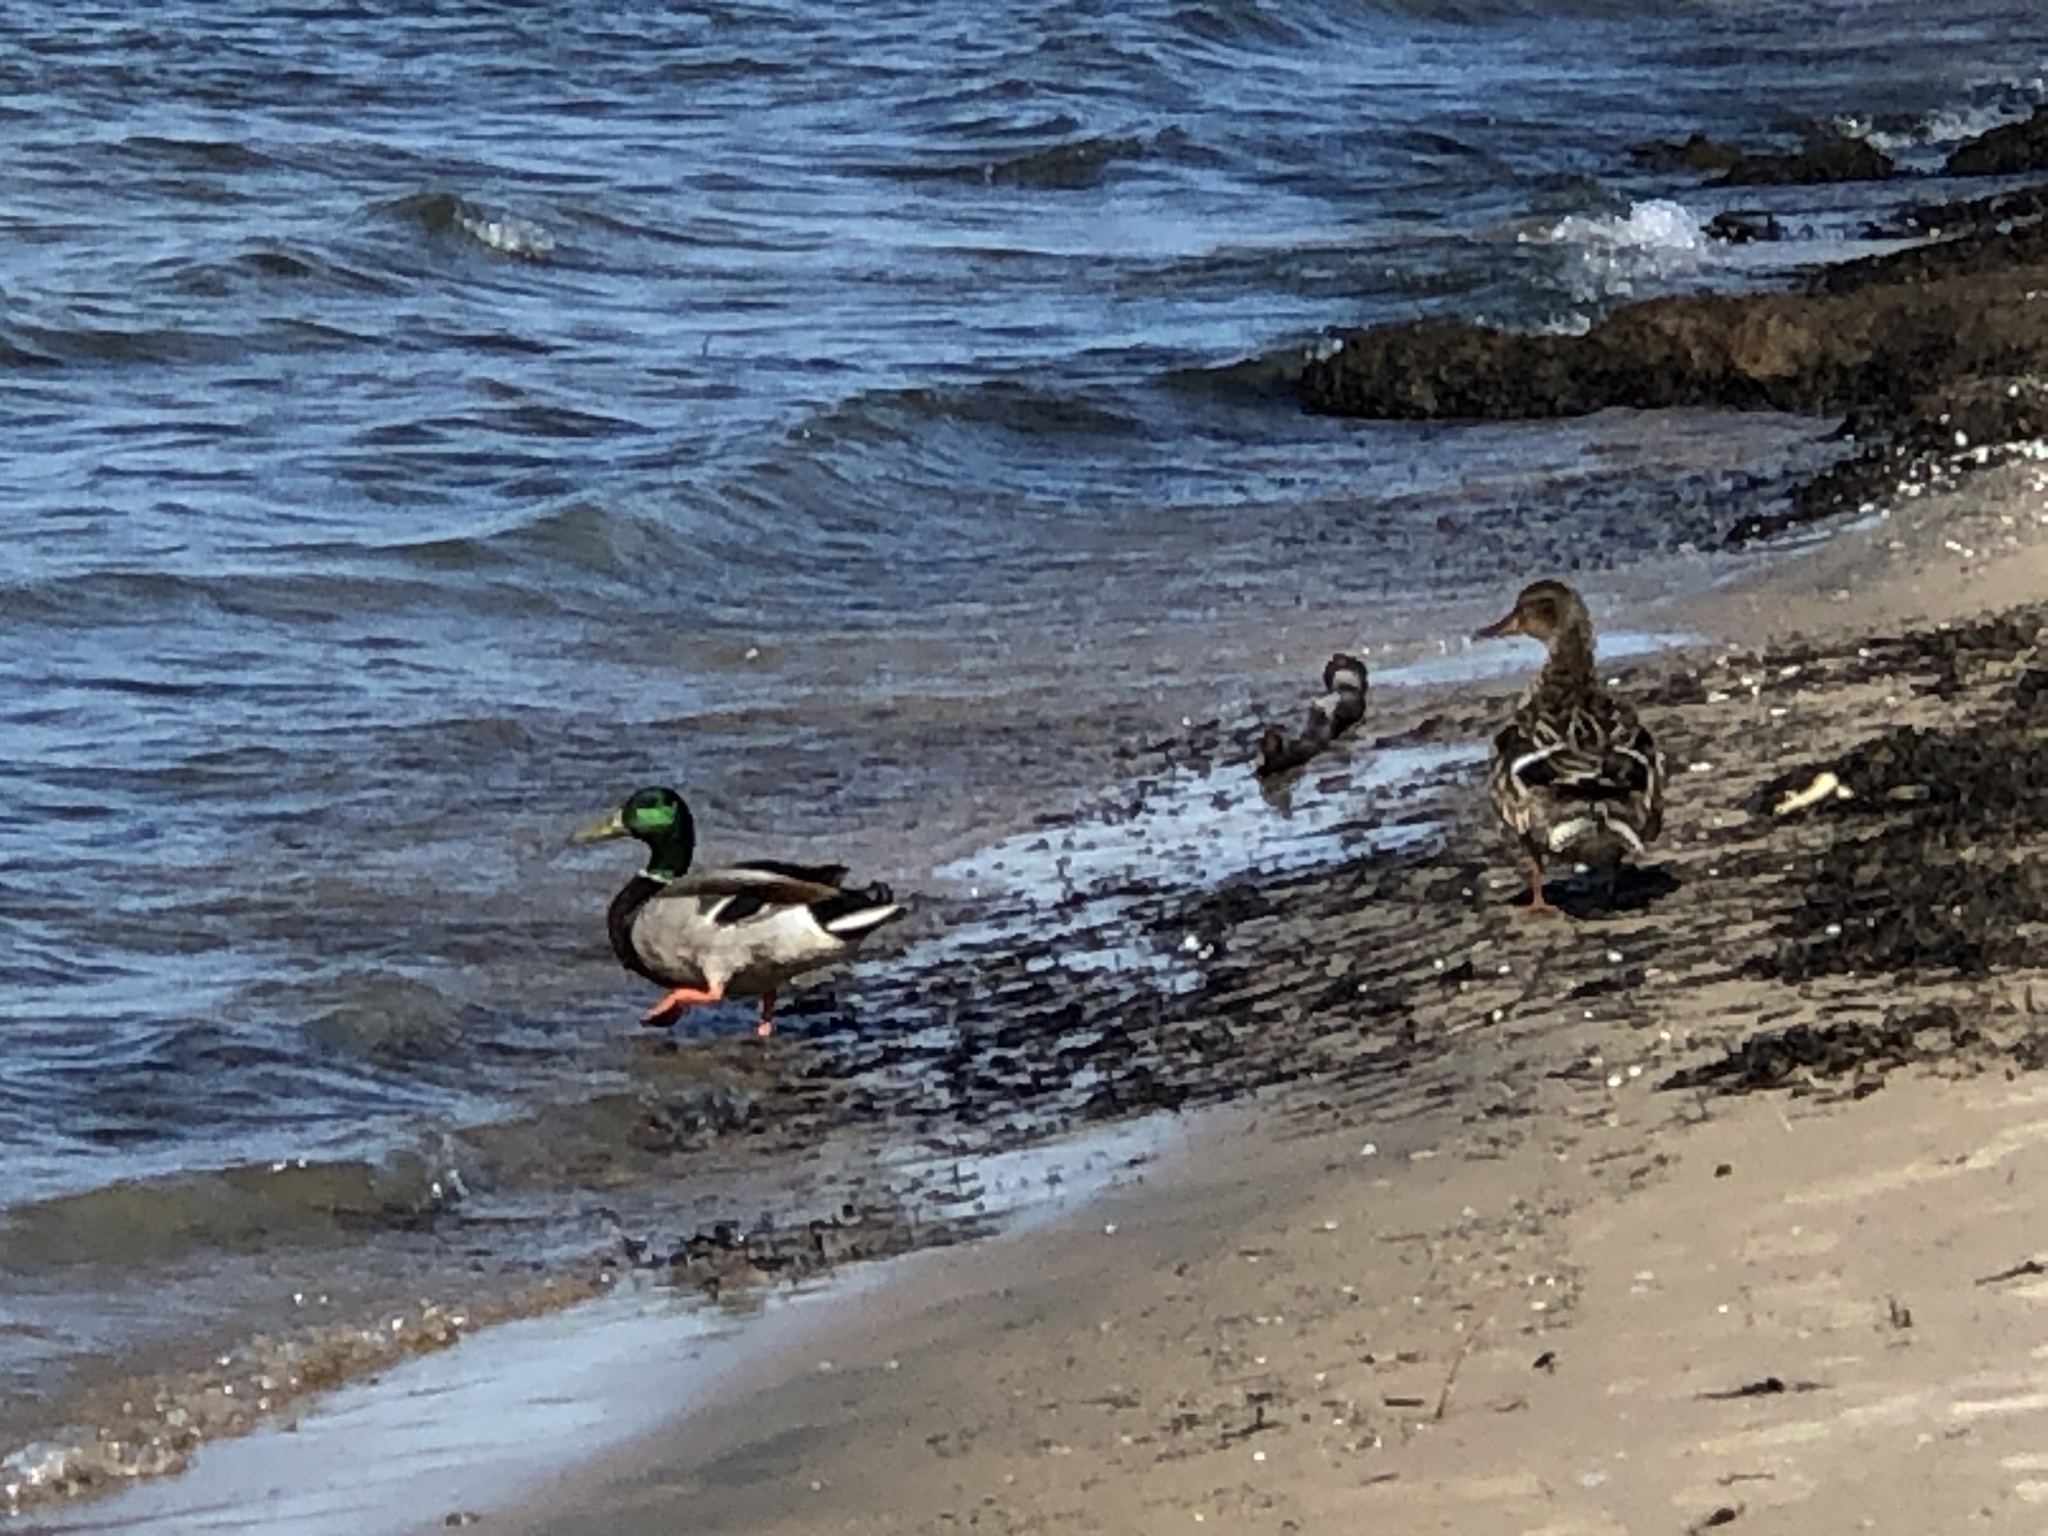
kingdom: Animalia
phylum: Chordata
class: Aves
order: Anseriformes
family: Anatidae
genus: Anas
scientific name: Anas platyrhynchos
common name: Mallard
